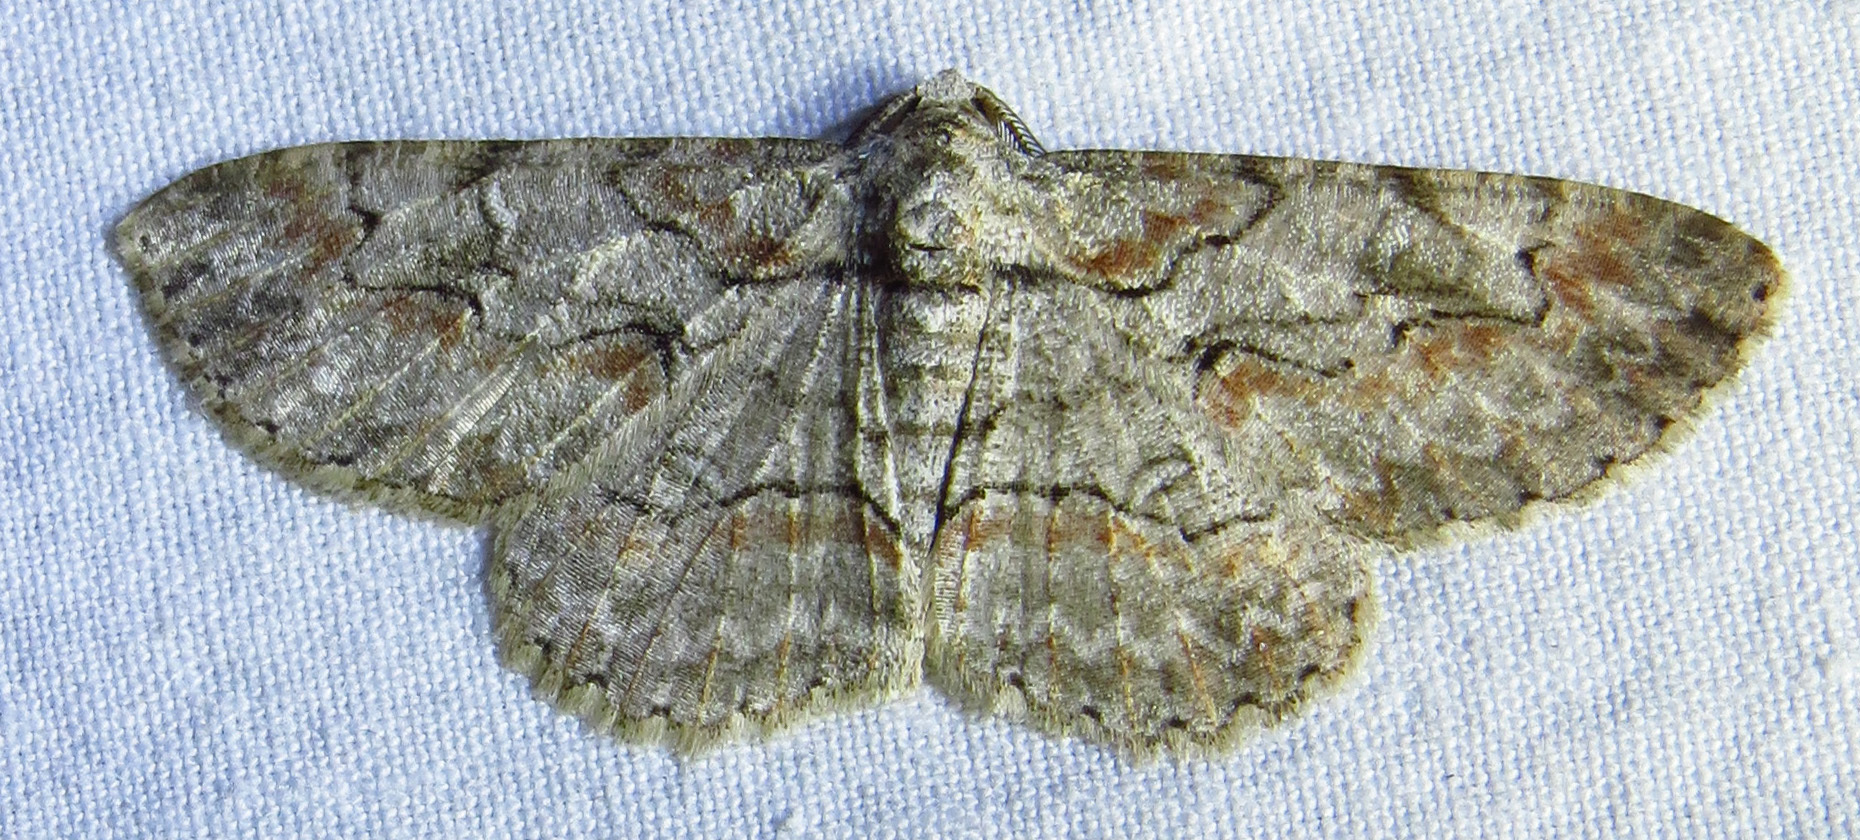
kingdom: Animalia
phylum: Arthropoda
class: Insecta
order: Lepidoptera
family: Geometridae
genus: Iridopsis
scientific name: Iridopsis defectaria
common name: Brown-shaded gray
